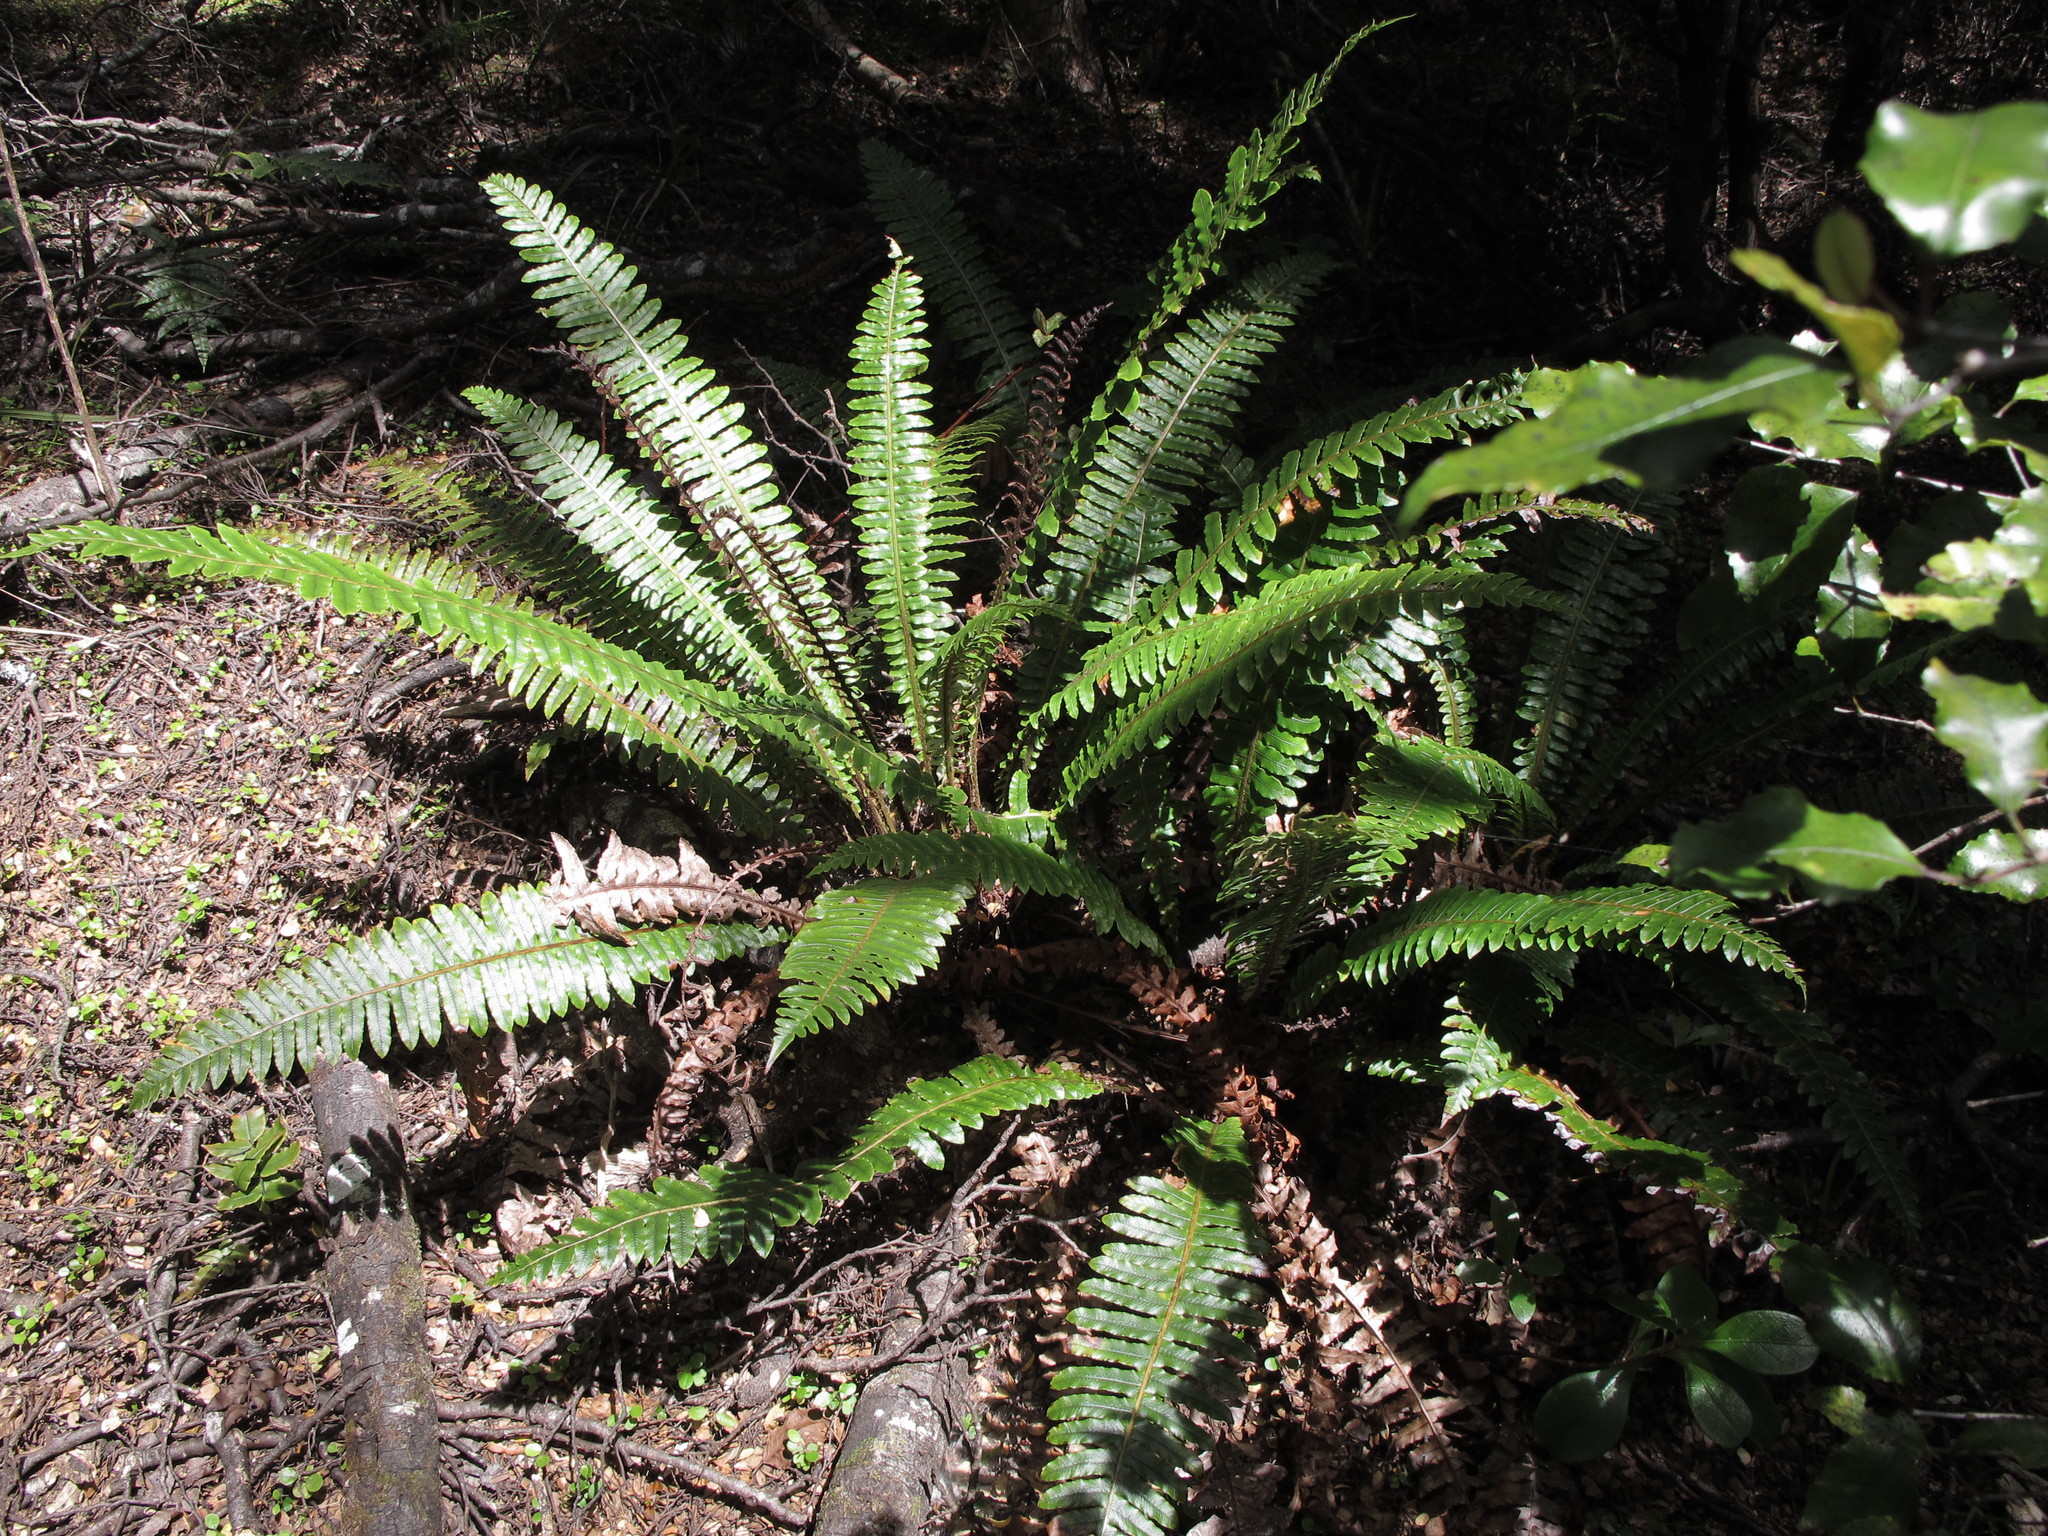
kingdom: Plantae
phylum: Tracheophyta
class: Polypodiopsida
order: Polypodiales
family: Blechnaceae
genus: Lomaria
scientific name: Lomaria discolor
